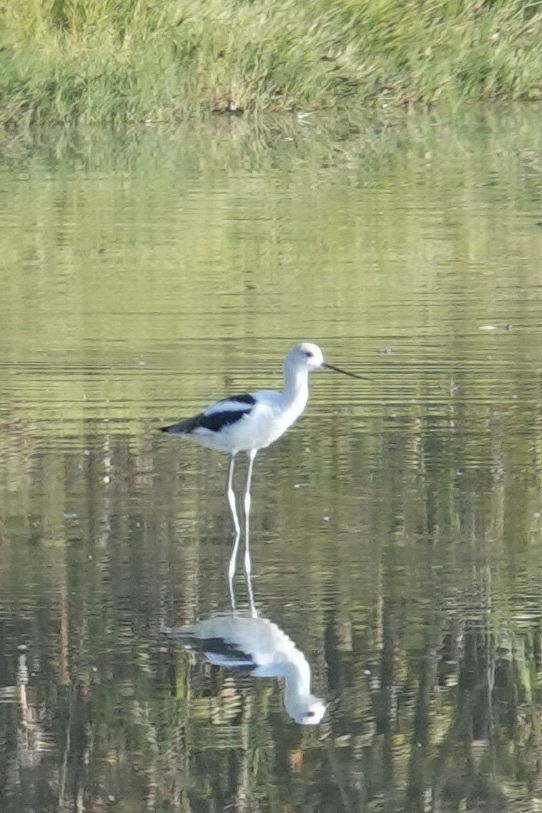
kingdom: Animalia
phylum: Chordata
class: Aves
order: Charadriiformes
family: Recurvirostridae
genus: Recurvirostra
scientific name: Recurvirostra americana
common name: American avocet
